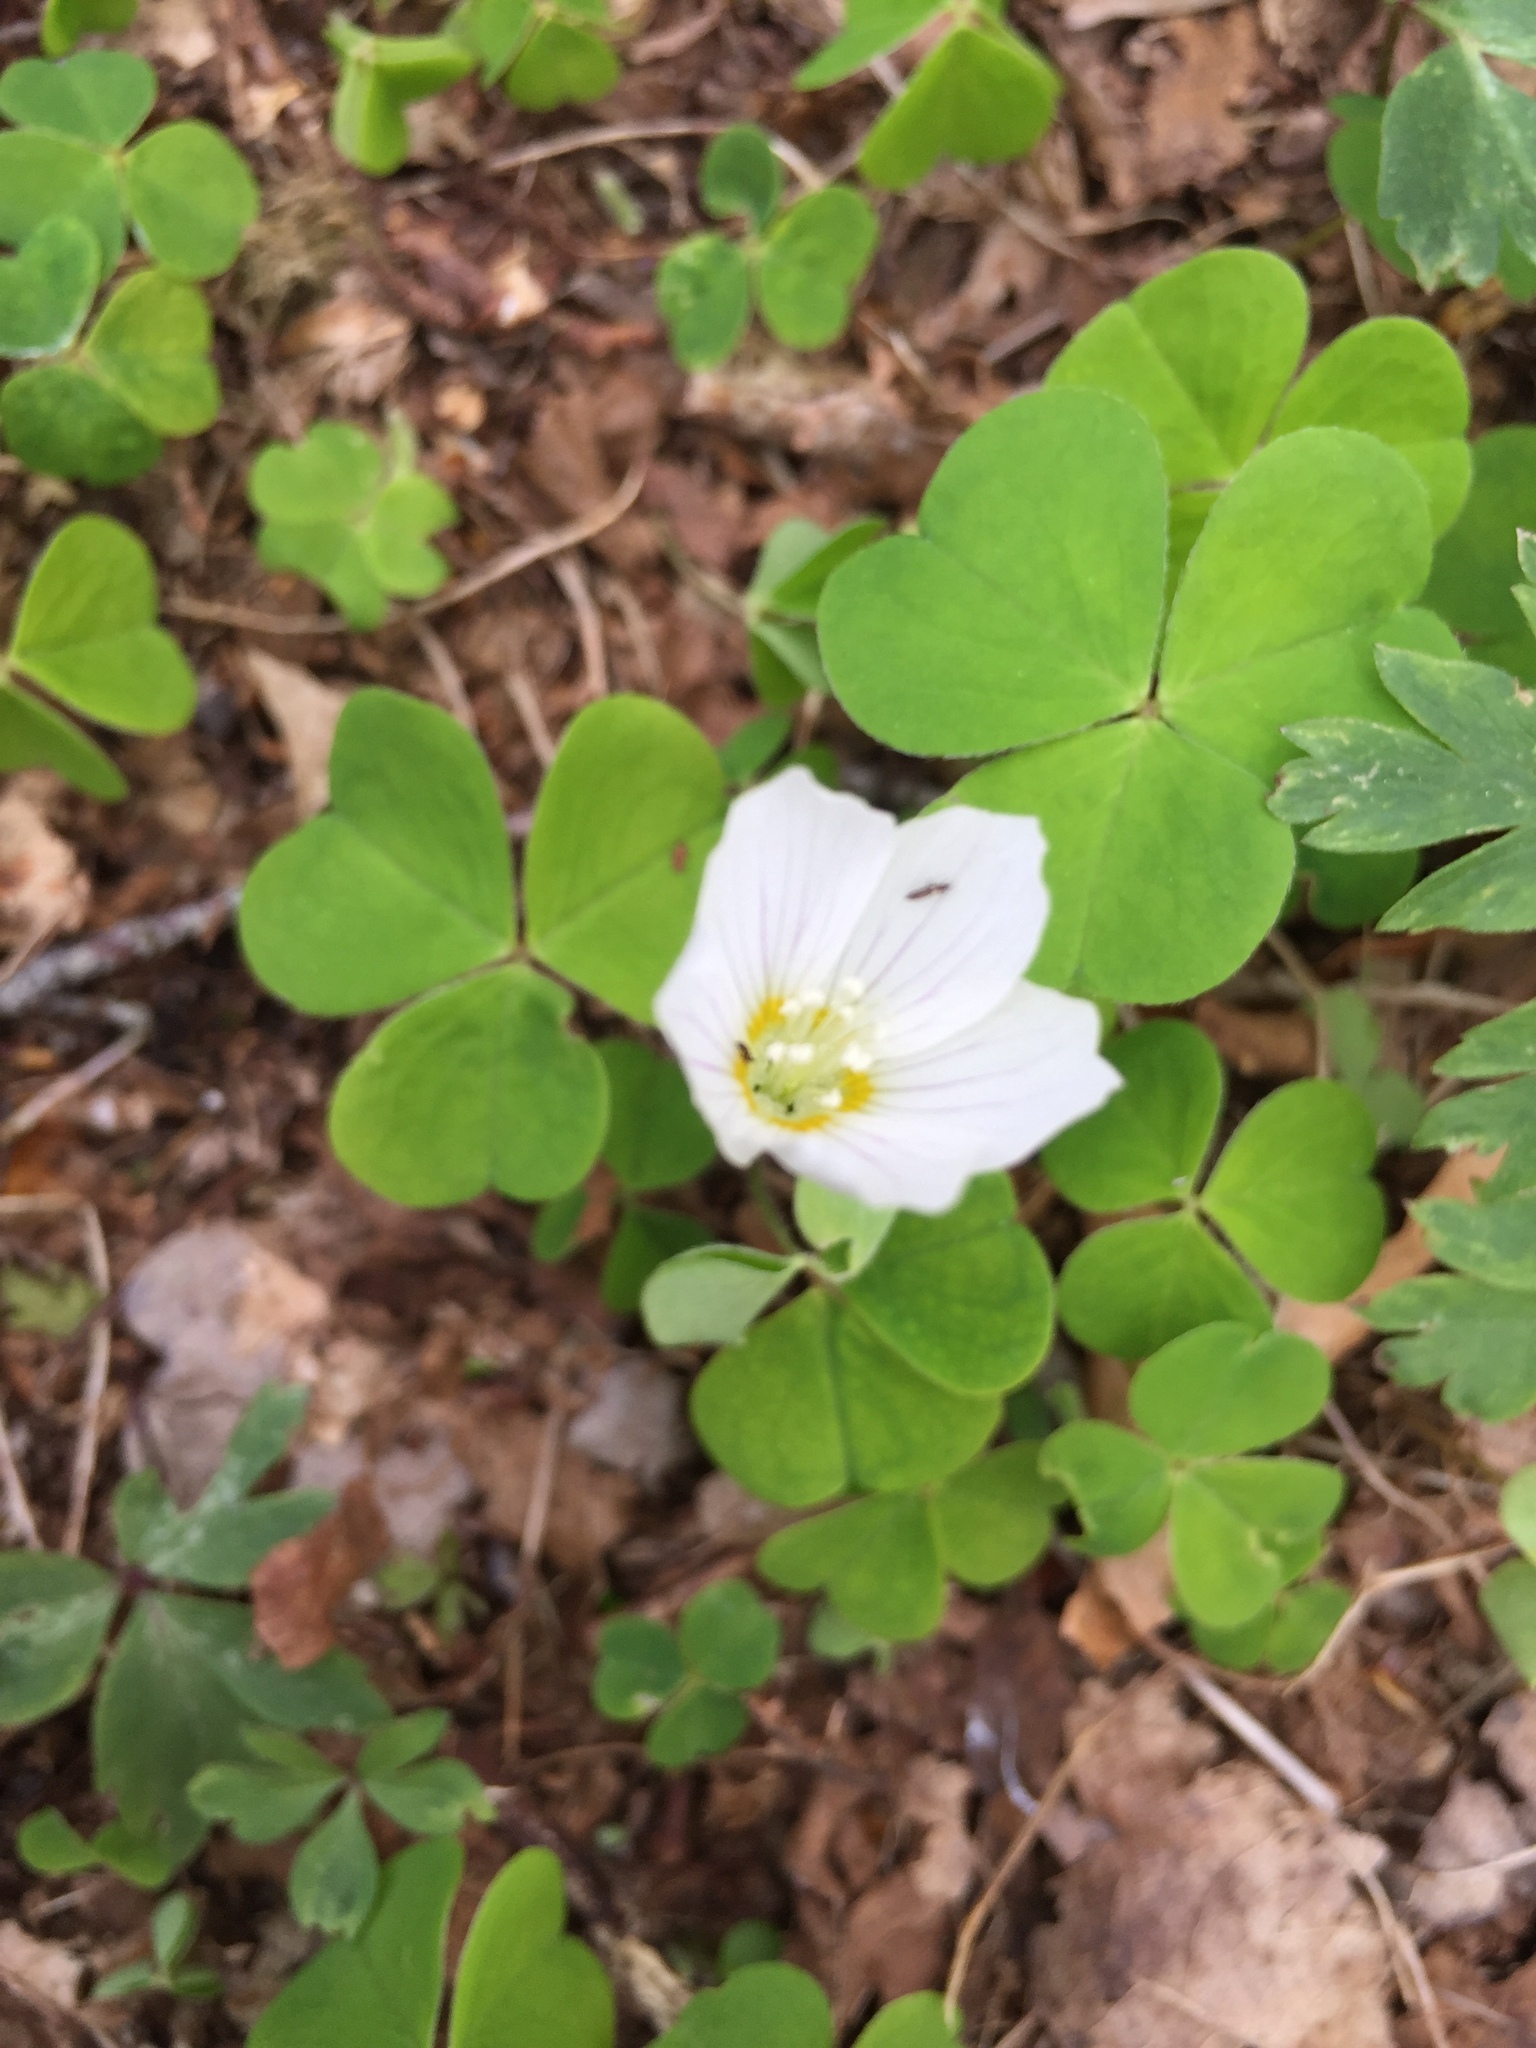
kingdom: Plantae
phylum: Tracheophyta
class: Magnoliopsida
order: Oxalidales
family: Oxalidaceae
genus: Oxalis
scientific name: Oxalis acetosella
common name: Wood-sorrel
